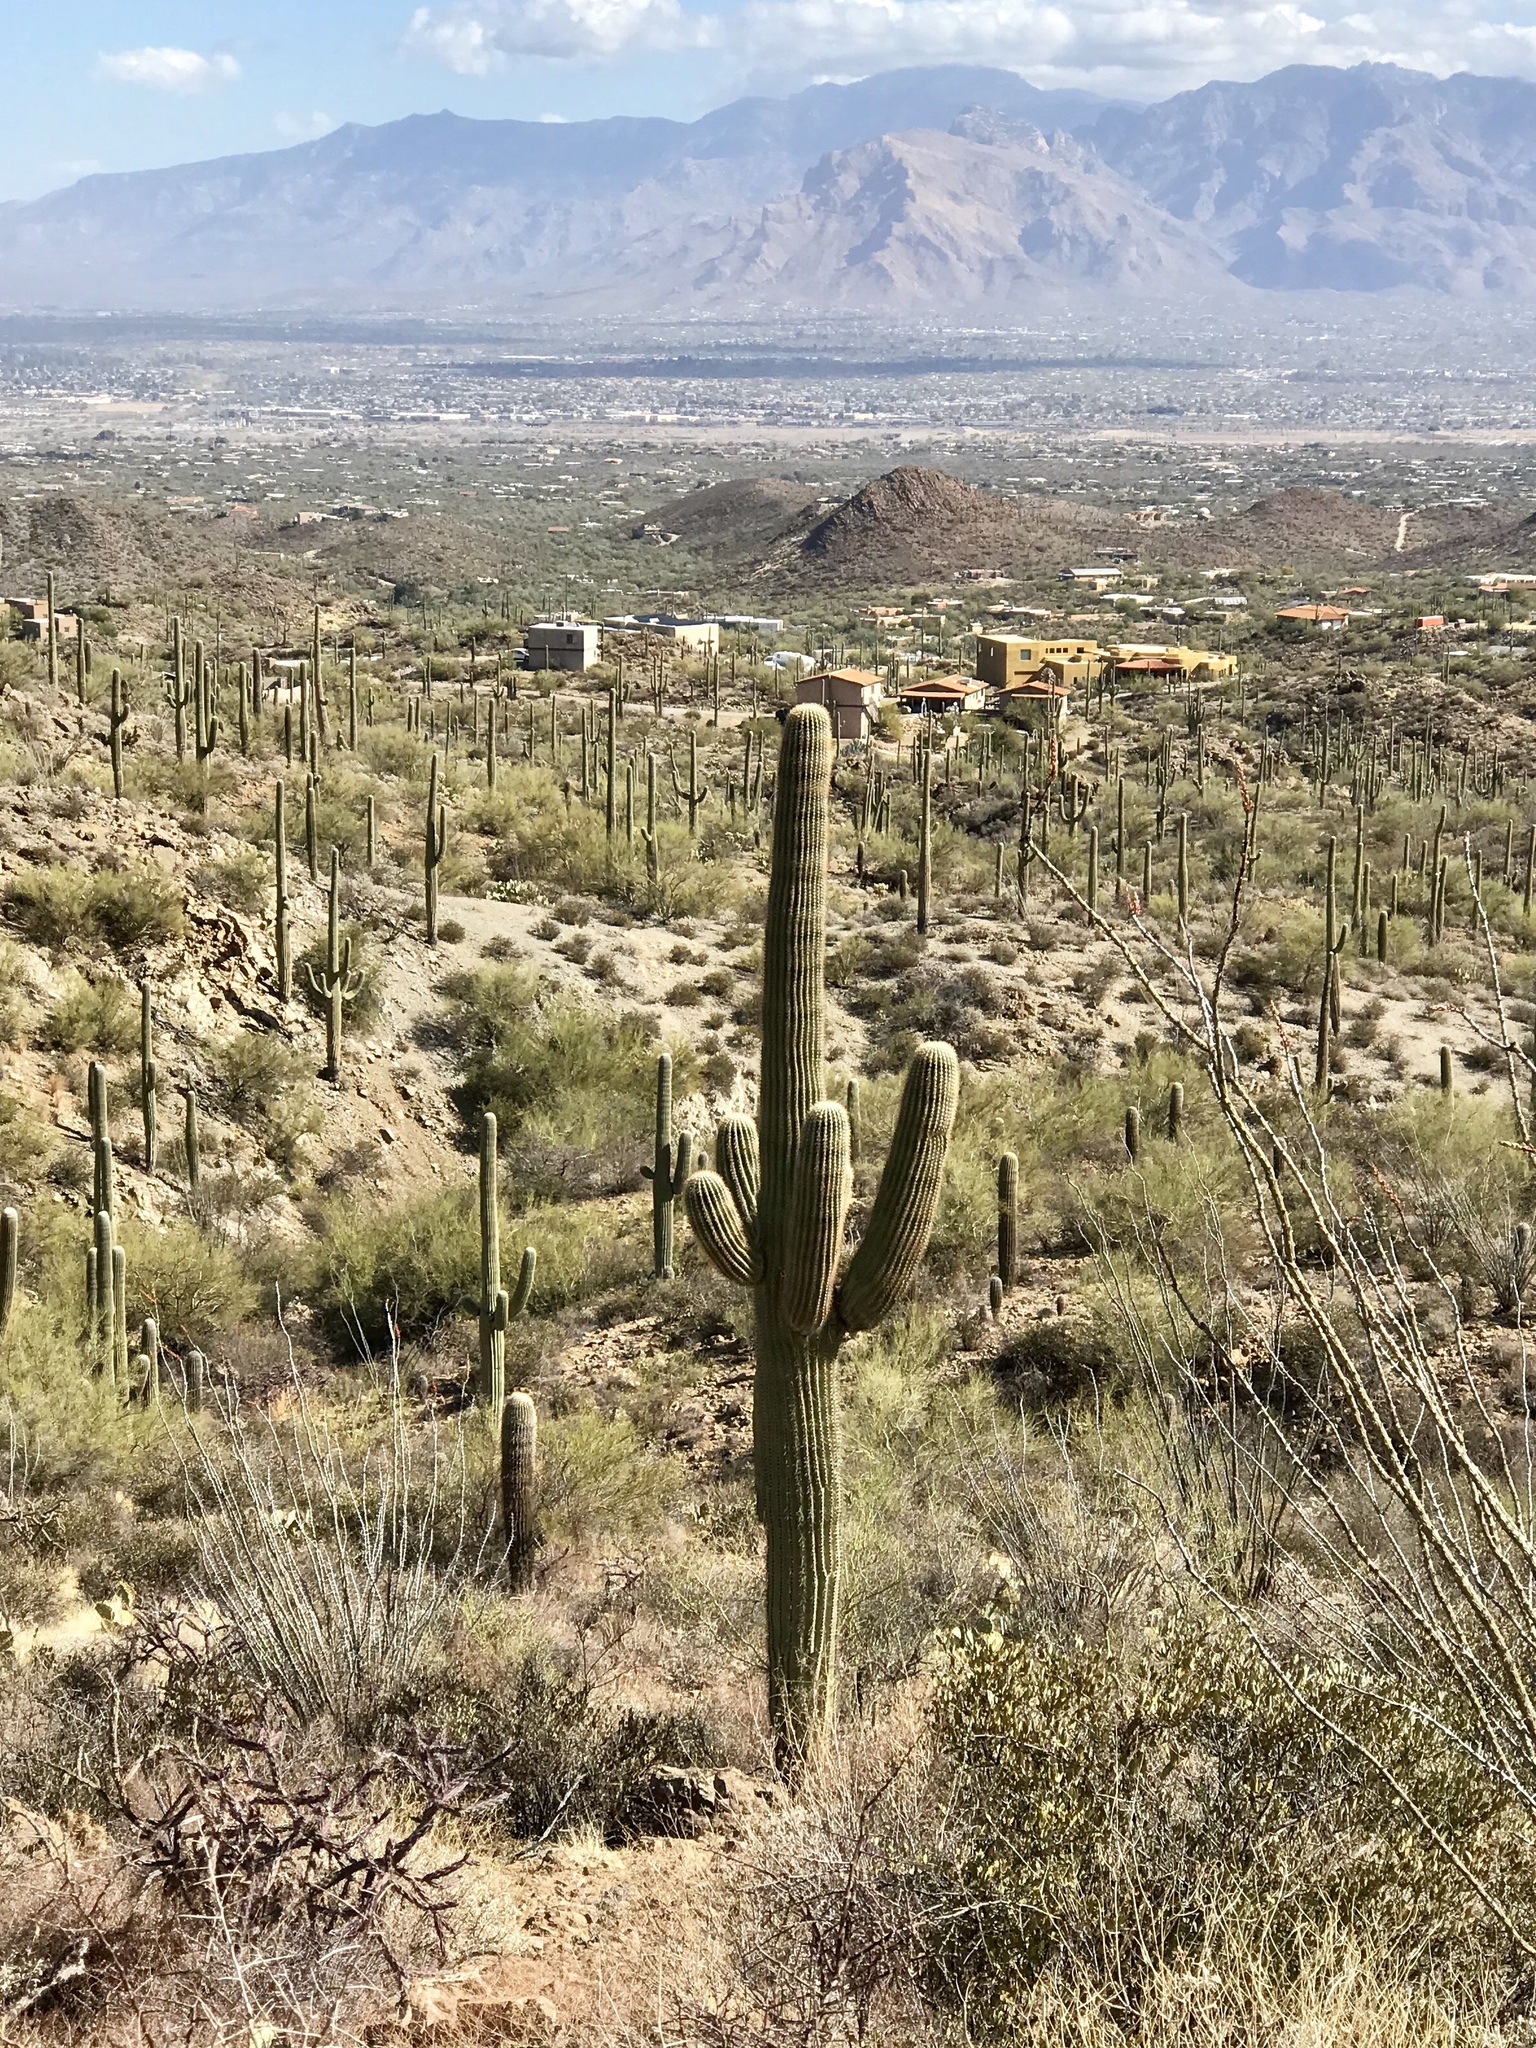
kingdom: Plantae
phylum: Tracheophyta
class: Magnoliopsida
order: Caryophyllales
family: Cactaceae
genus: Carnegiea
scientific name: Carnegiea gigantea
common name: Saguaro
